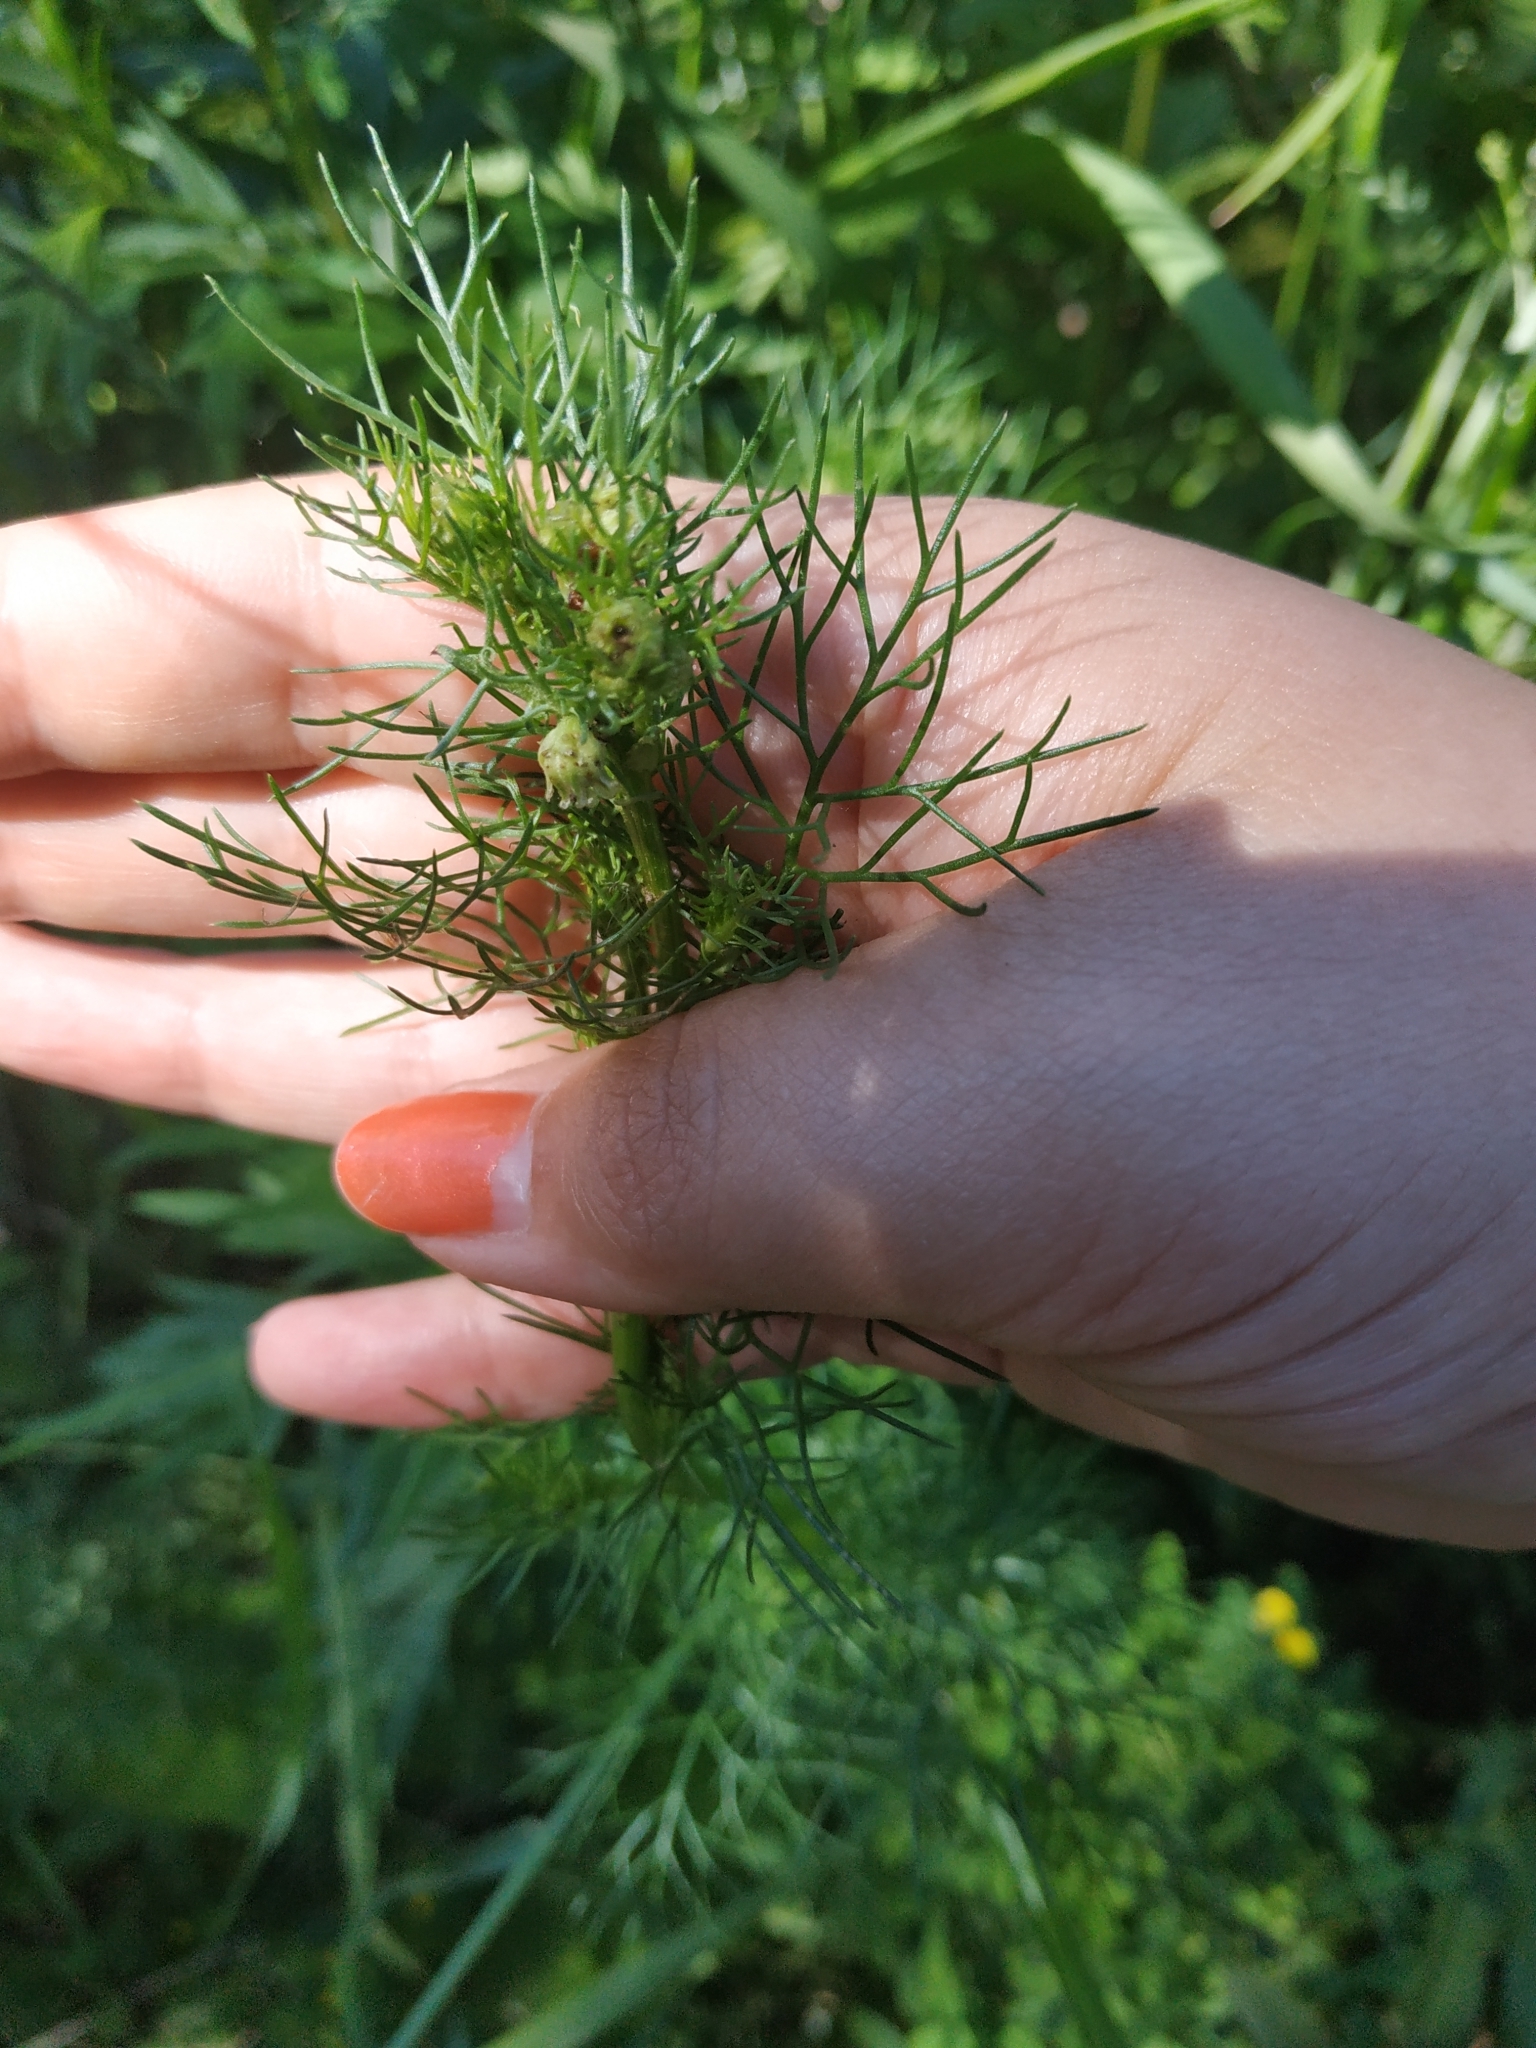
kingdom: Plantae
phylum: Tracheophyta
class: Magnoliopsida
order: Asterales
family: Asteraceae
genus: Tripleurospermum
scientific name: Tripleurospermum inodorum
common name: Scentless mayweed
